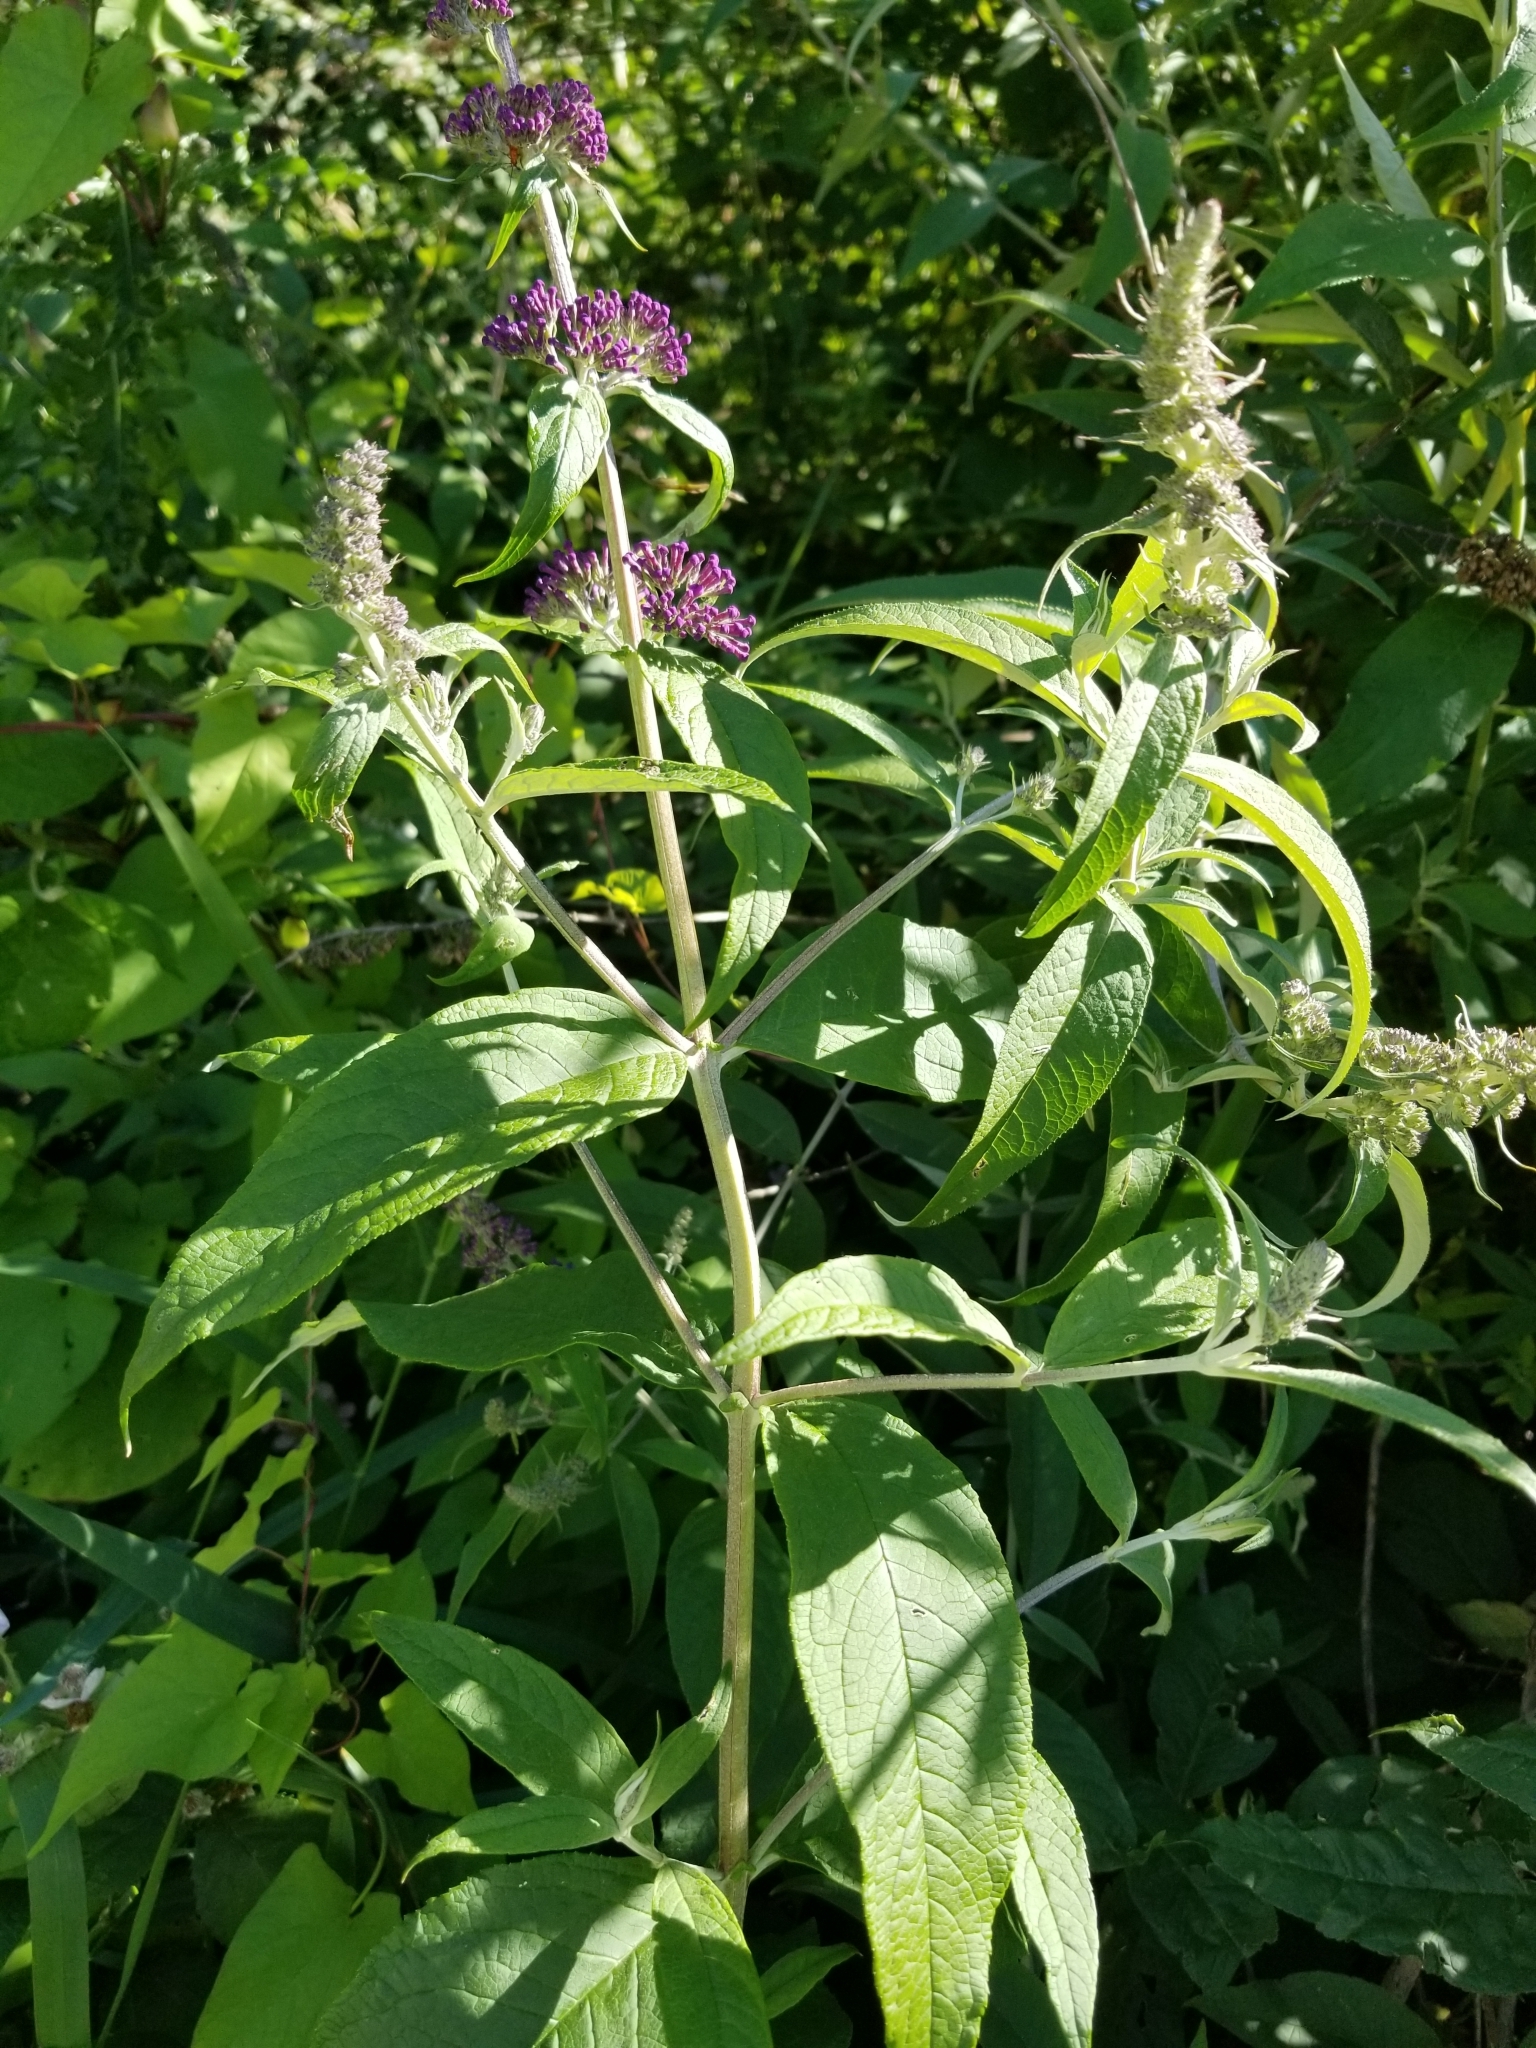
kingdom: Plantae
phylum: Tracheophyta
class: Magnoliopsida
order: Lamiales
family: Scrophulariaceae
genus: Buddleja
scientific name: Buddleja davidii
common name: Butterfly-bush
